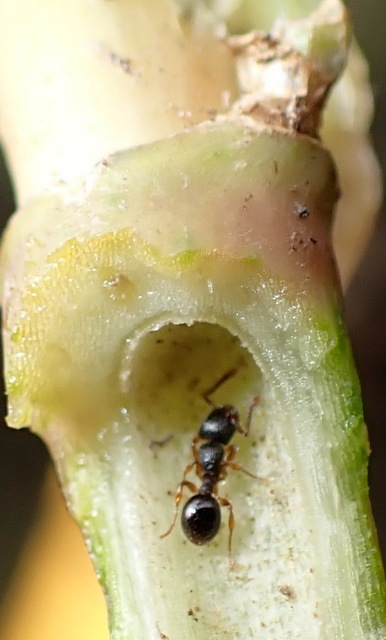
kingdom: Animalia
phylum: Arthropoda
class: Insecta
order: Hymenoptera
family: Formicidae
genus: Myrmecina
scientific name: Myrmecina americana
